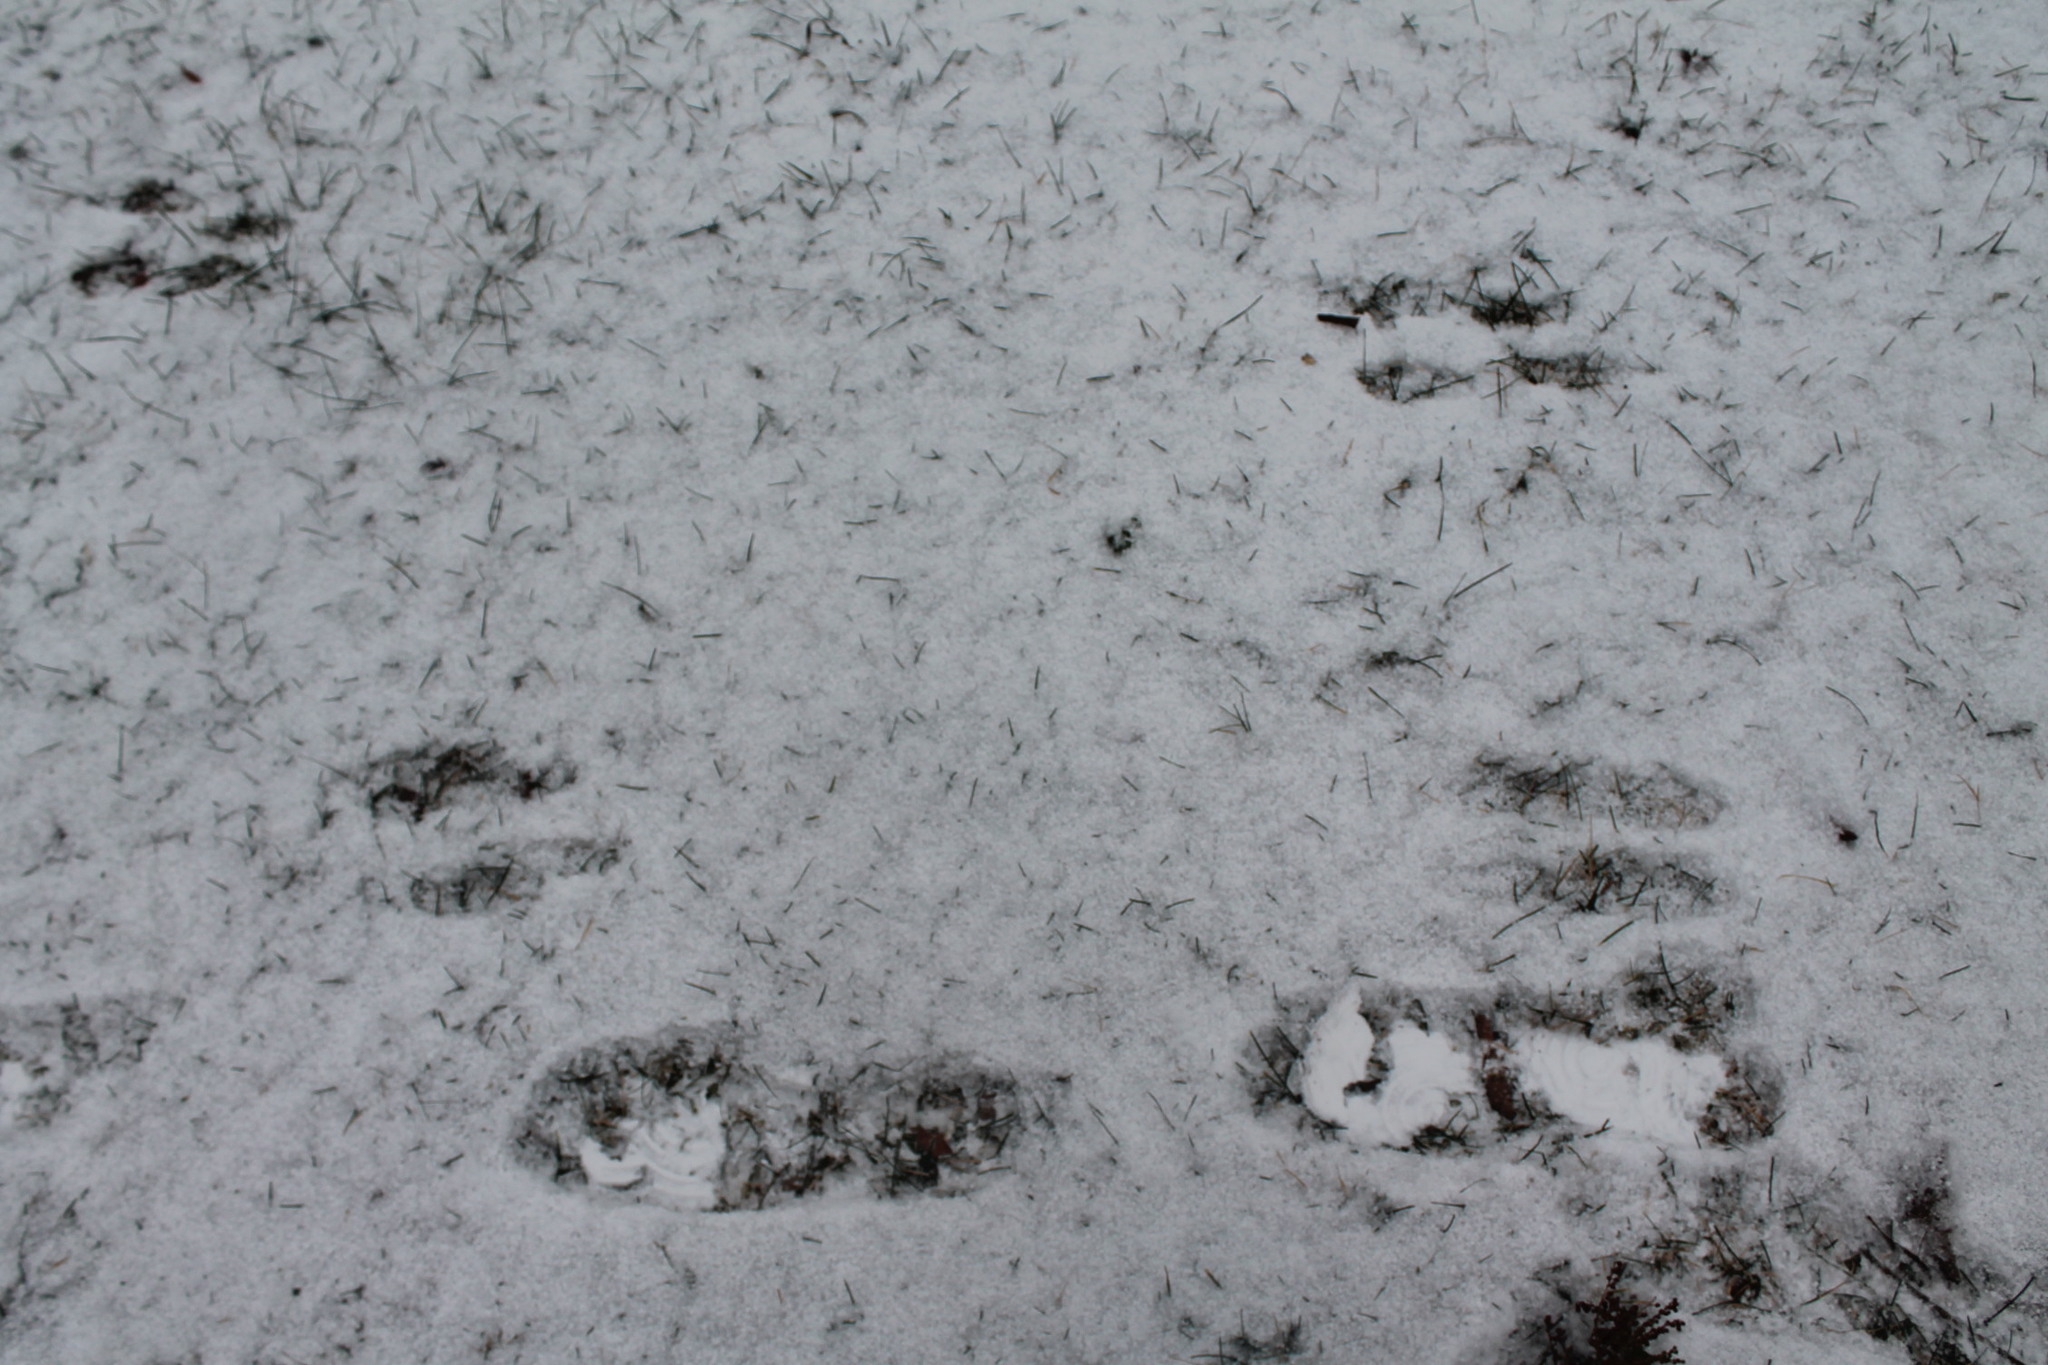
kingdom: Animalia
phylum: Chordata
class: Mammalia
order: Lagomorpha
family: Leporidae
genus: Sylvilagus
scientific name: Sylvilagus floridanus
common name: Eastern cottontail
